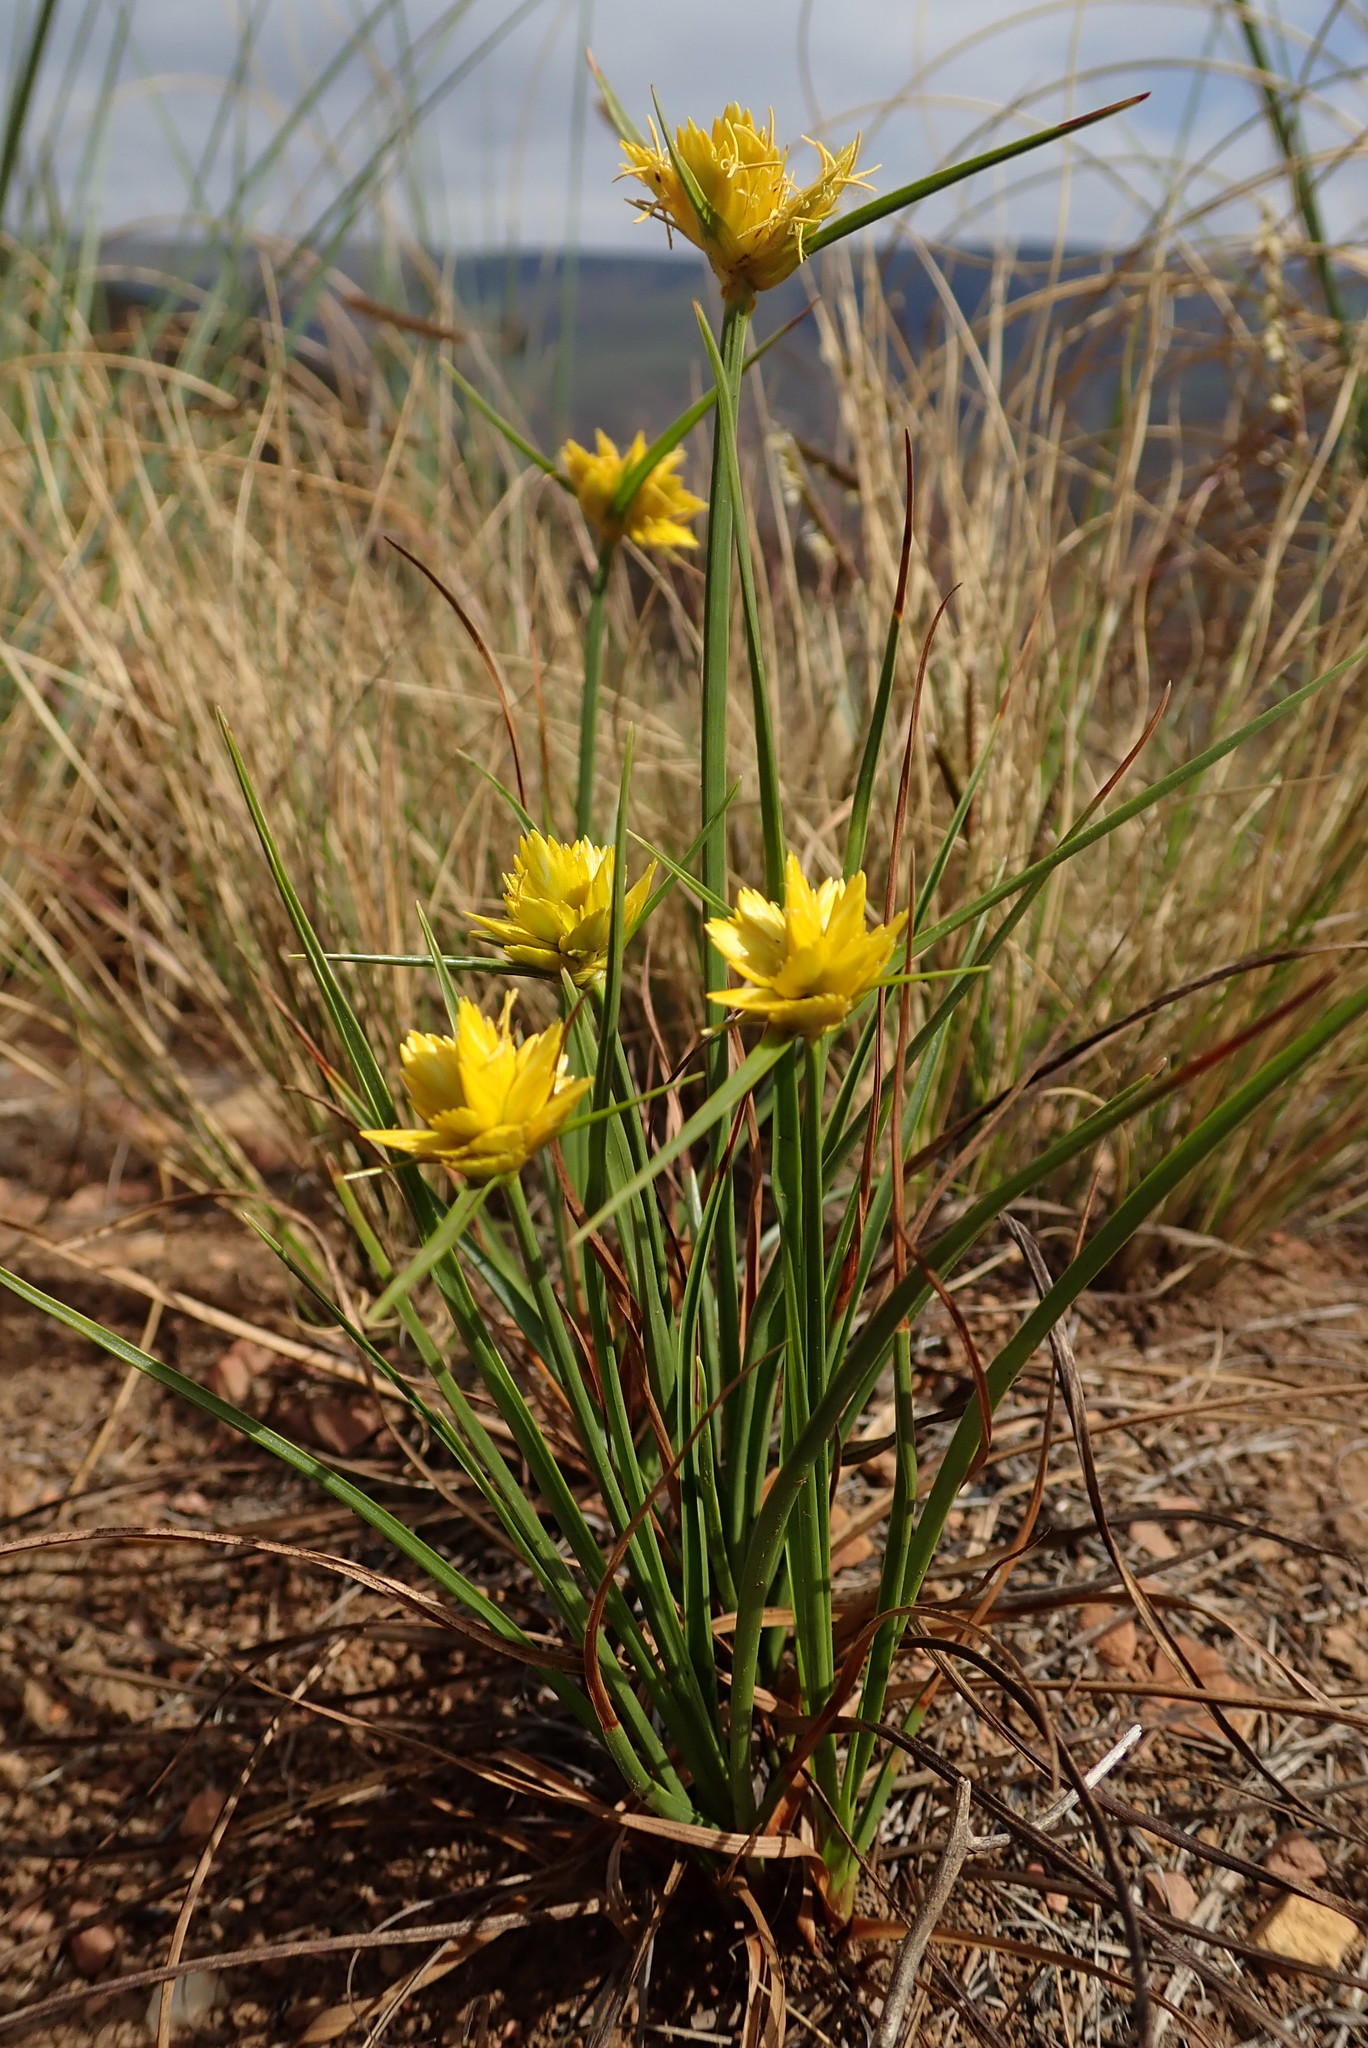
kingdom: Plantae
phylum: Tracheophyta
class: Liliopsida
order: Poales
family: Cyperaceae
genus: Cyperus
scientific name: Cyperus sphaerocephalus
